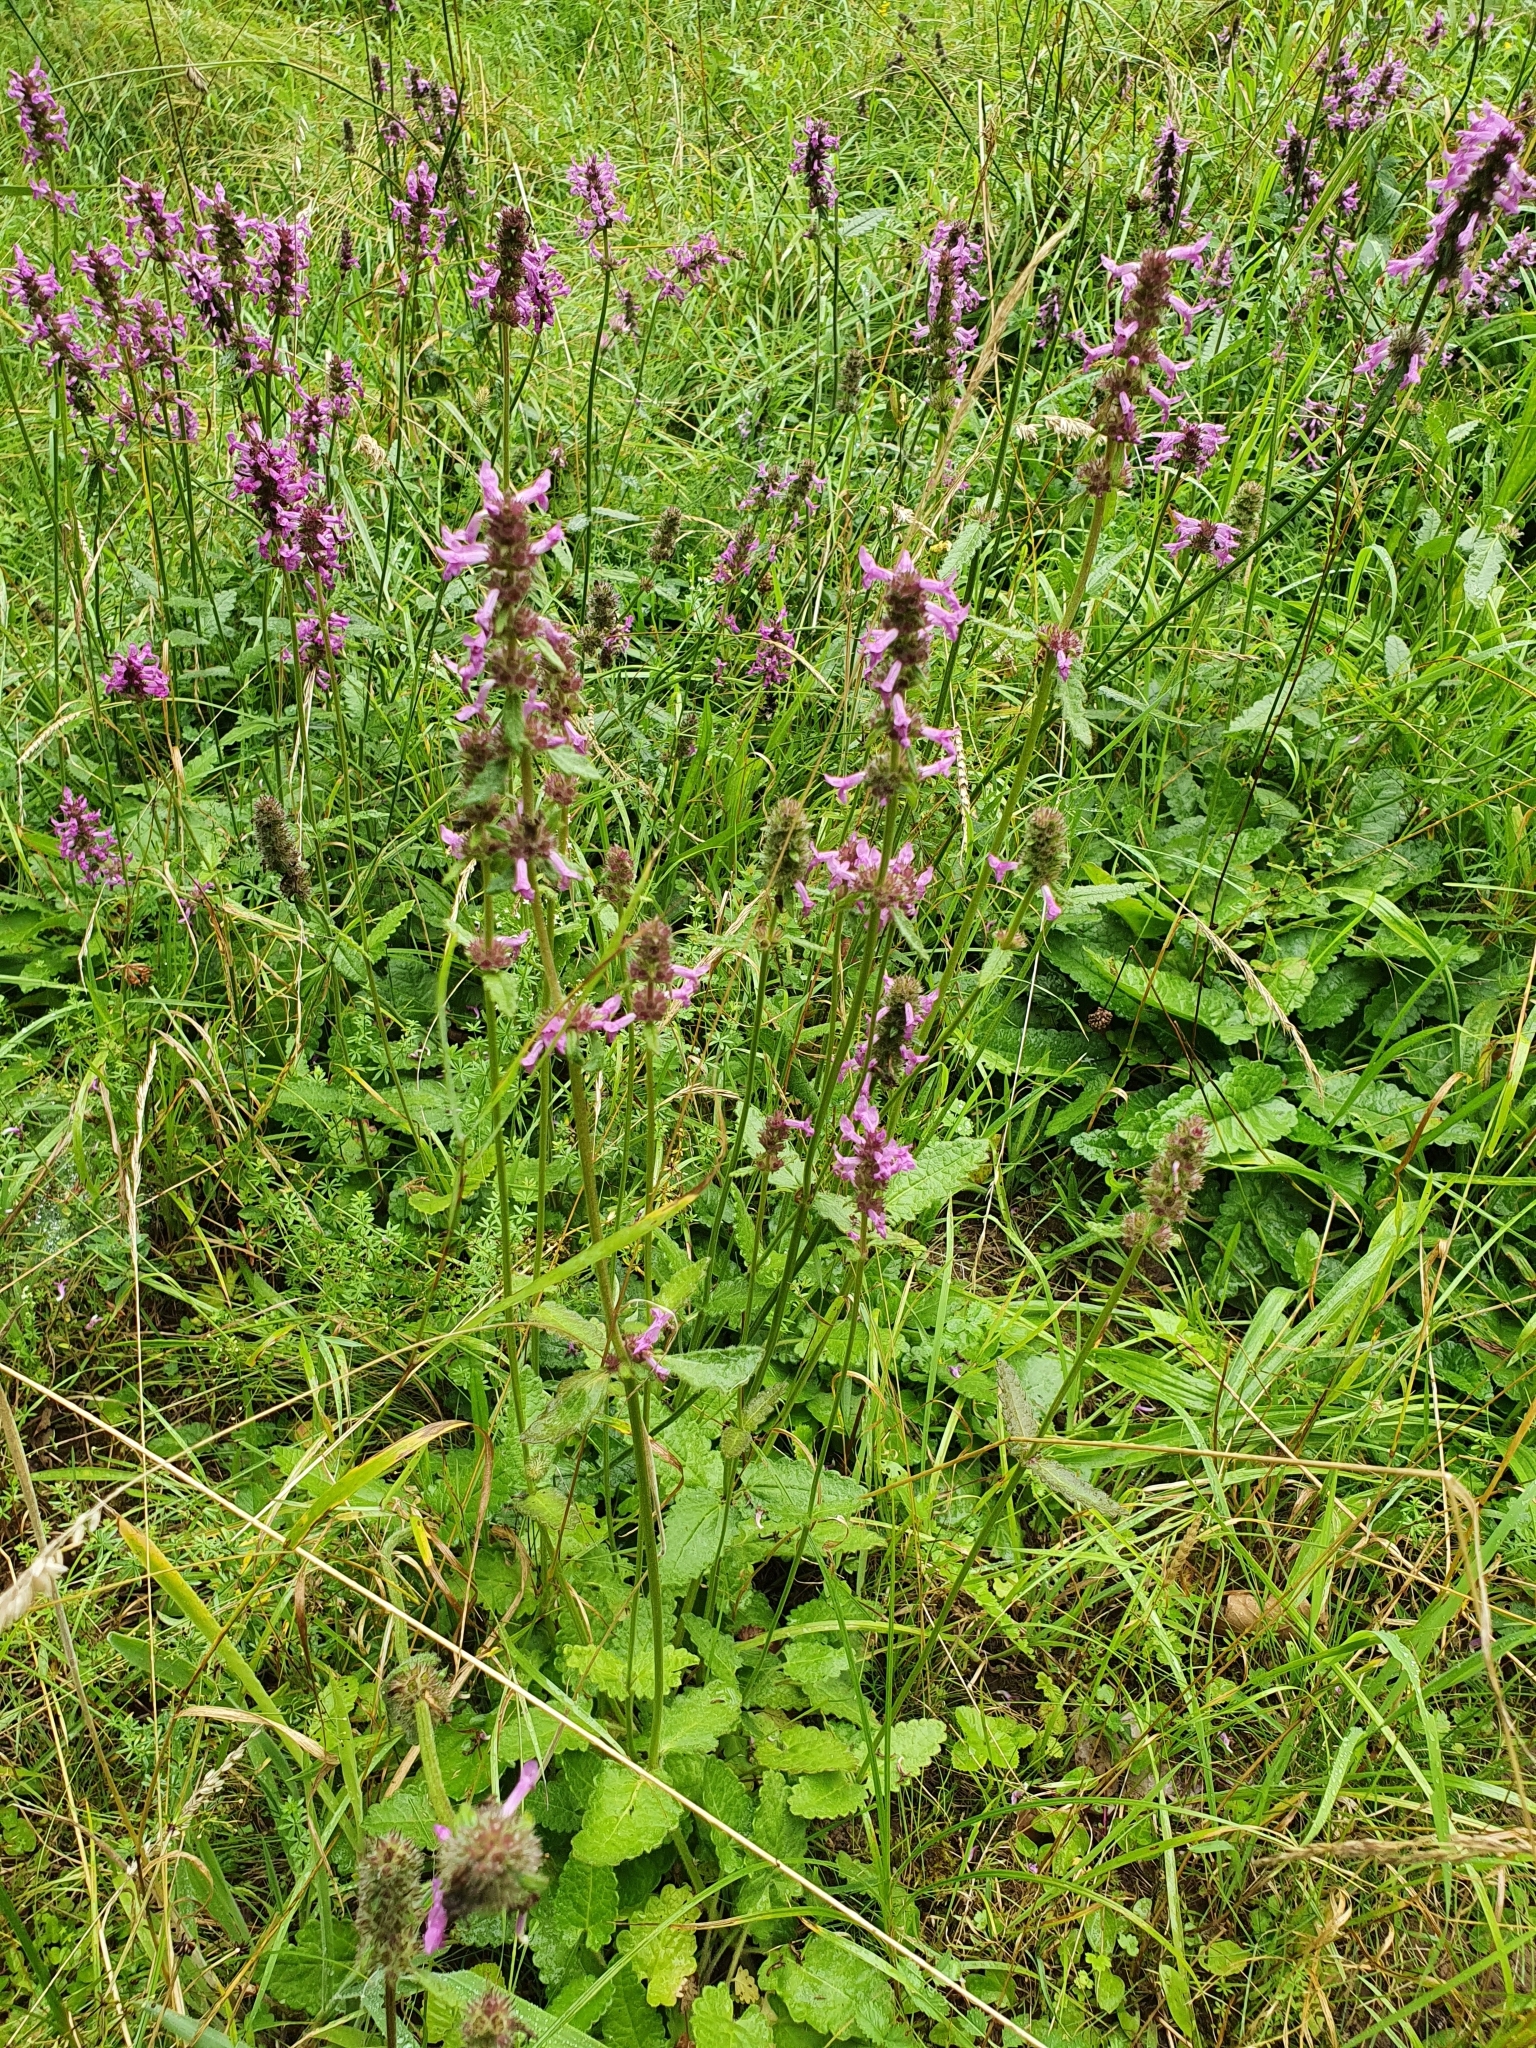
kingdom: Plantae
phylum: Tracheophyta
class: Magnoliopsida
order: Lamiales
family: Lamiaceae
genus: Betonica
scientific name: Betonica officinalis
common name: Bishop's-wort
